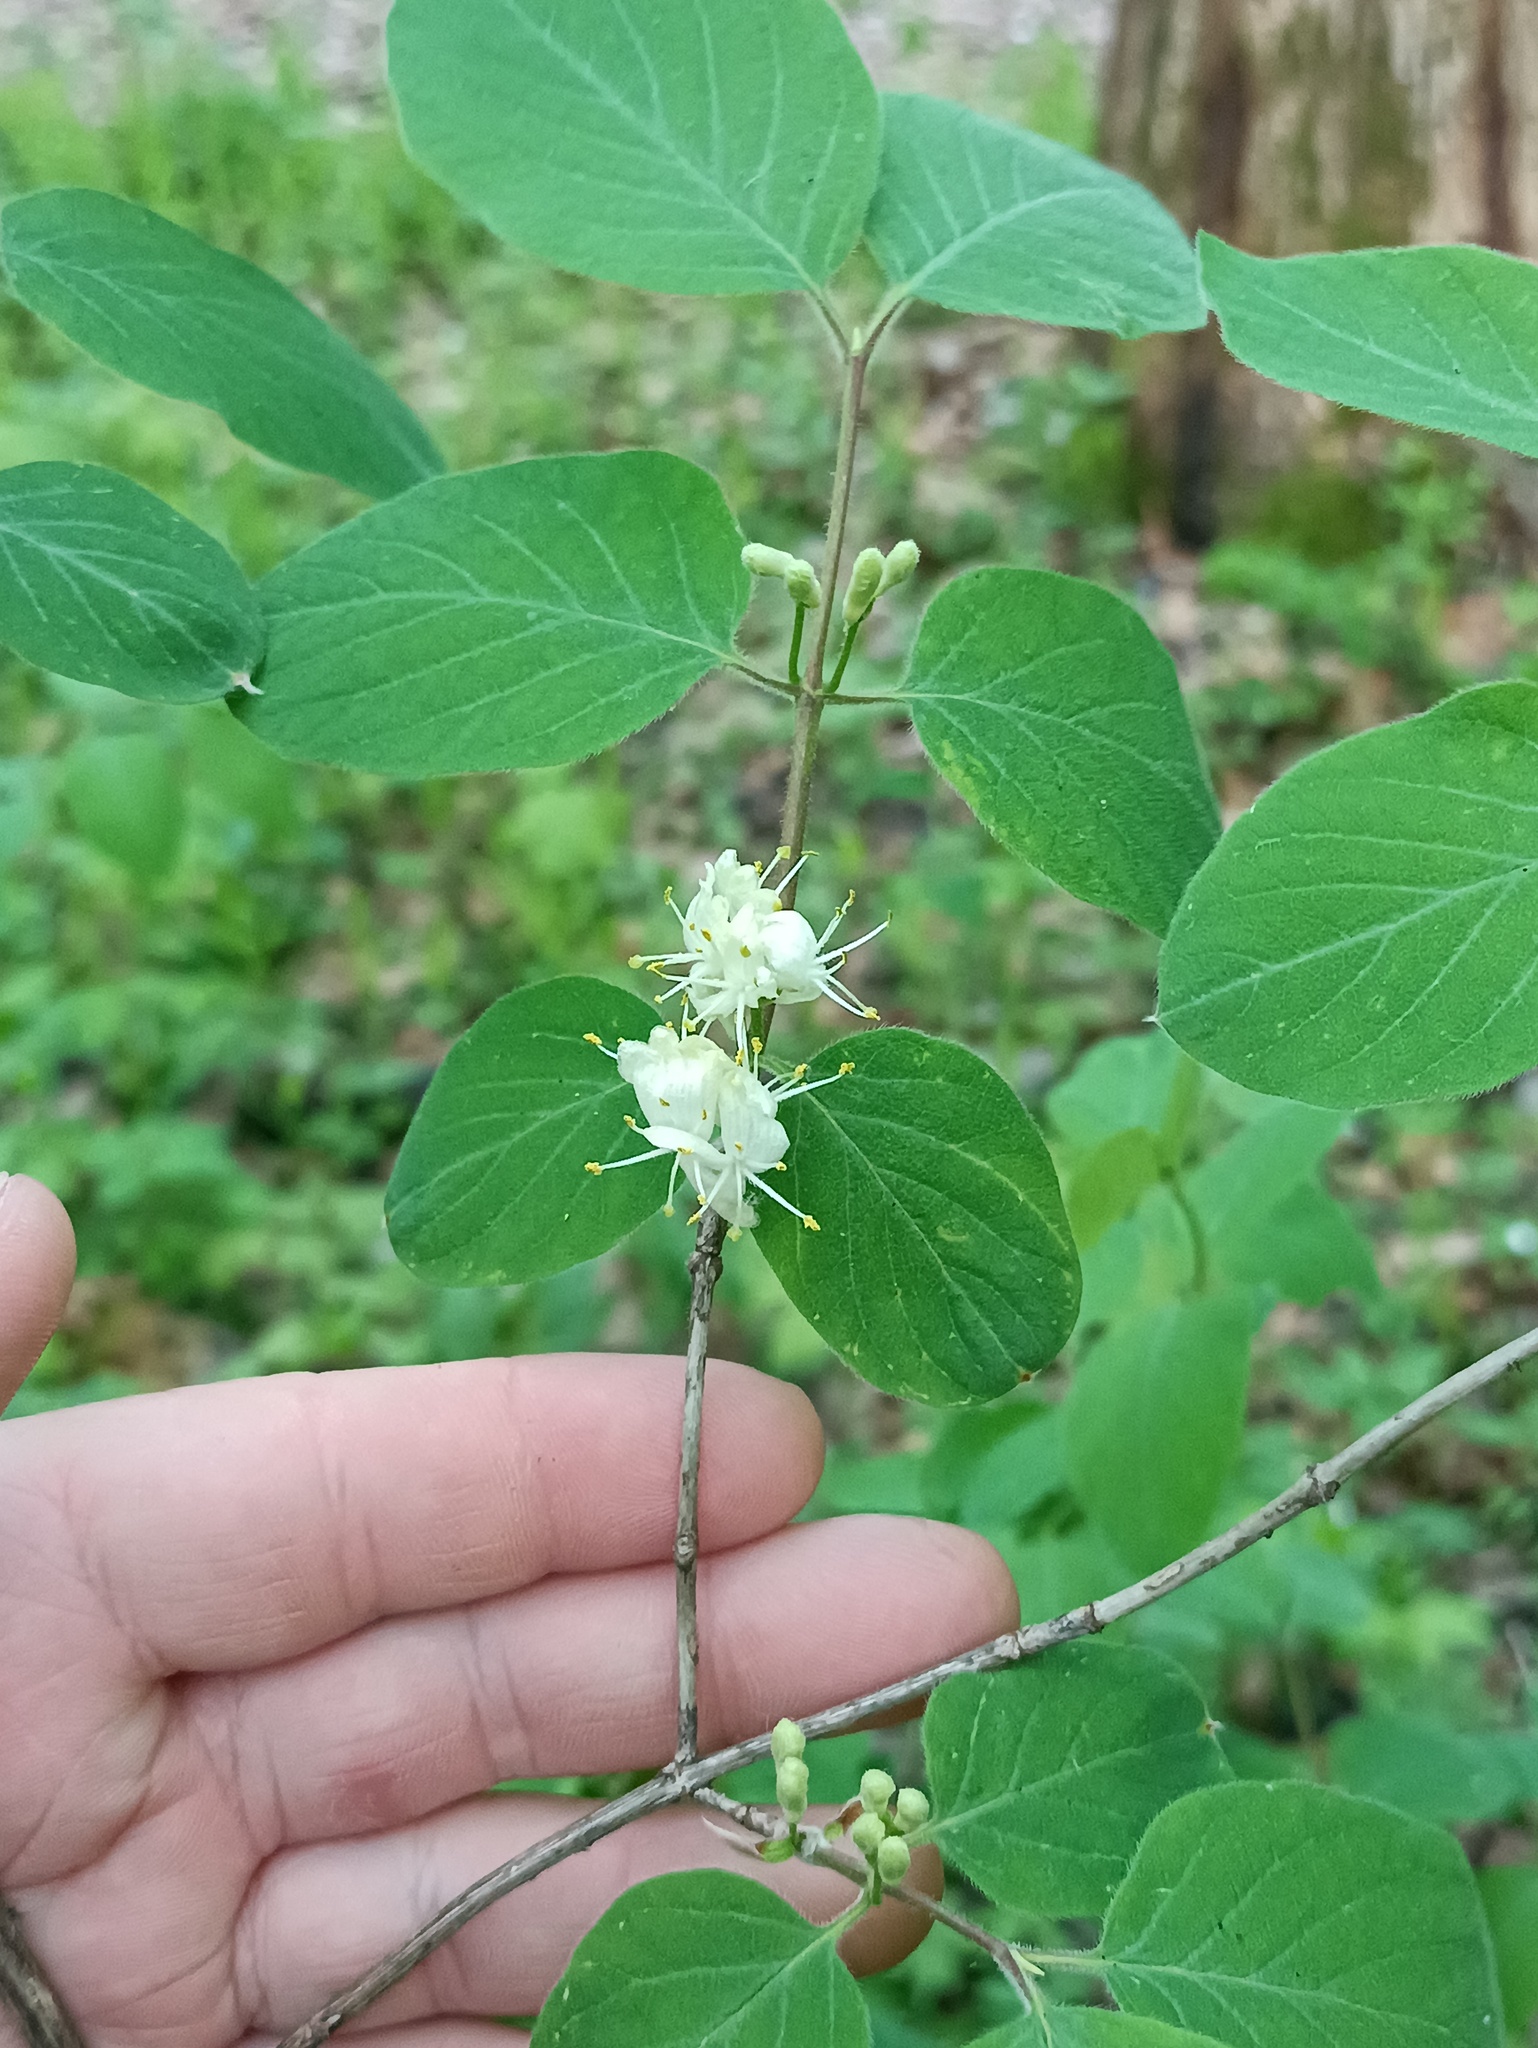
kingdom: Plantae
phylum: Tracheophyta
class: Magnoliopsida
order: Dipsacales
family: Caprifoliaceae
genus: Lonicera
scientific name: Lonicera xylosteum
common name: Fly honeysuckle
